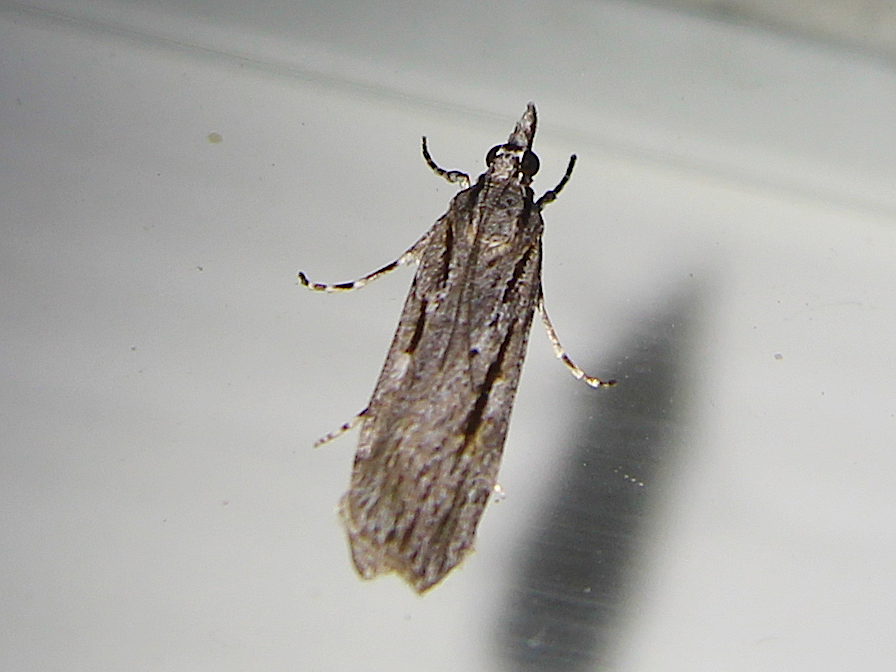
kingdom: Animalia
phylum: Arthropoda
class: Insecta
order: Lepidoptera
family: Crambidae
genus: Scoparia
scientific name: Scoparia indistinctalis
